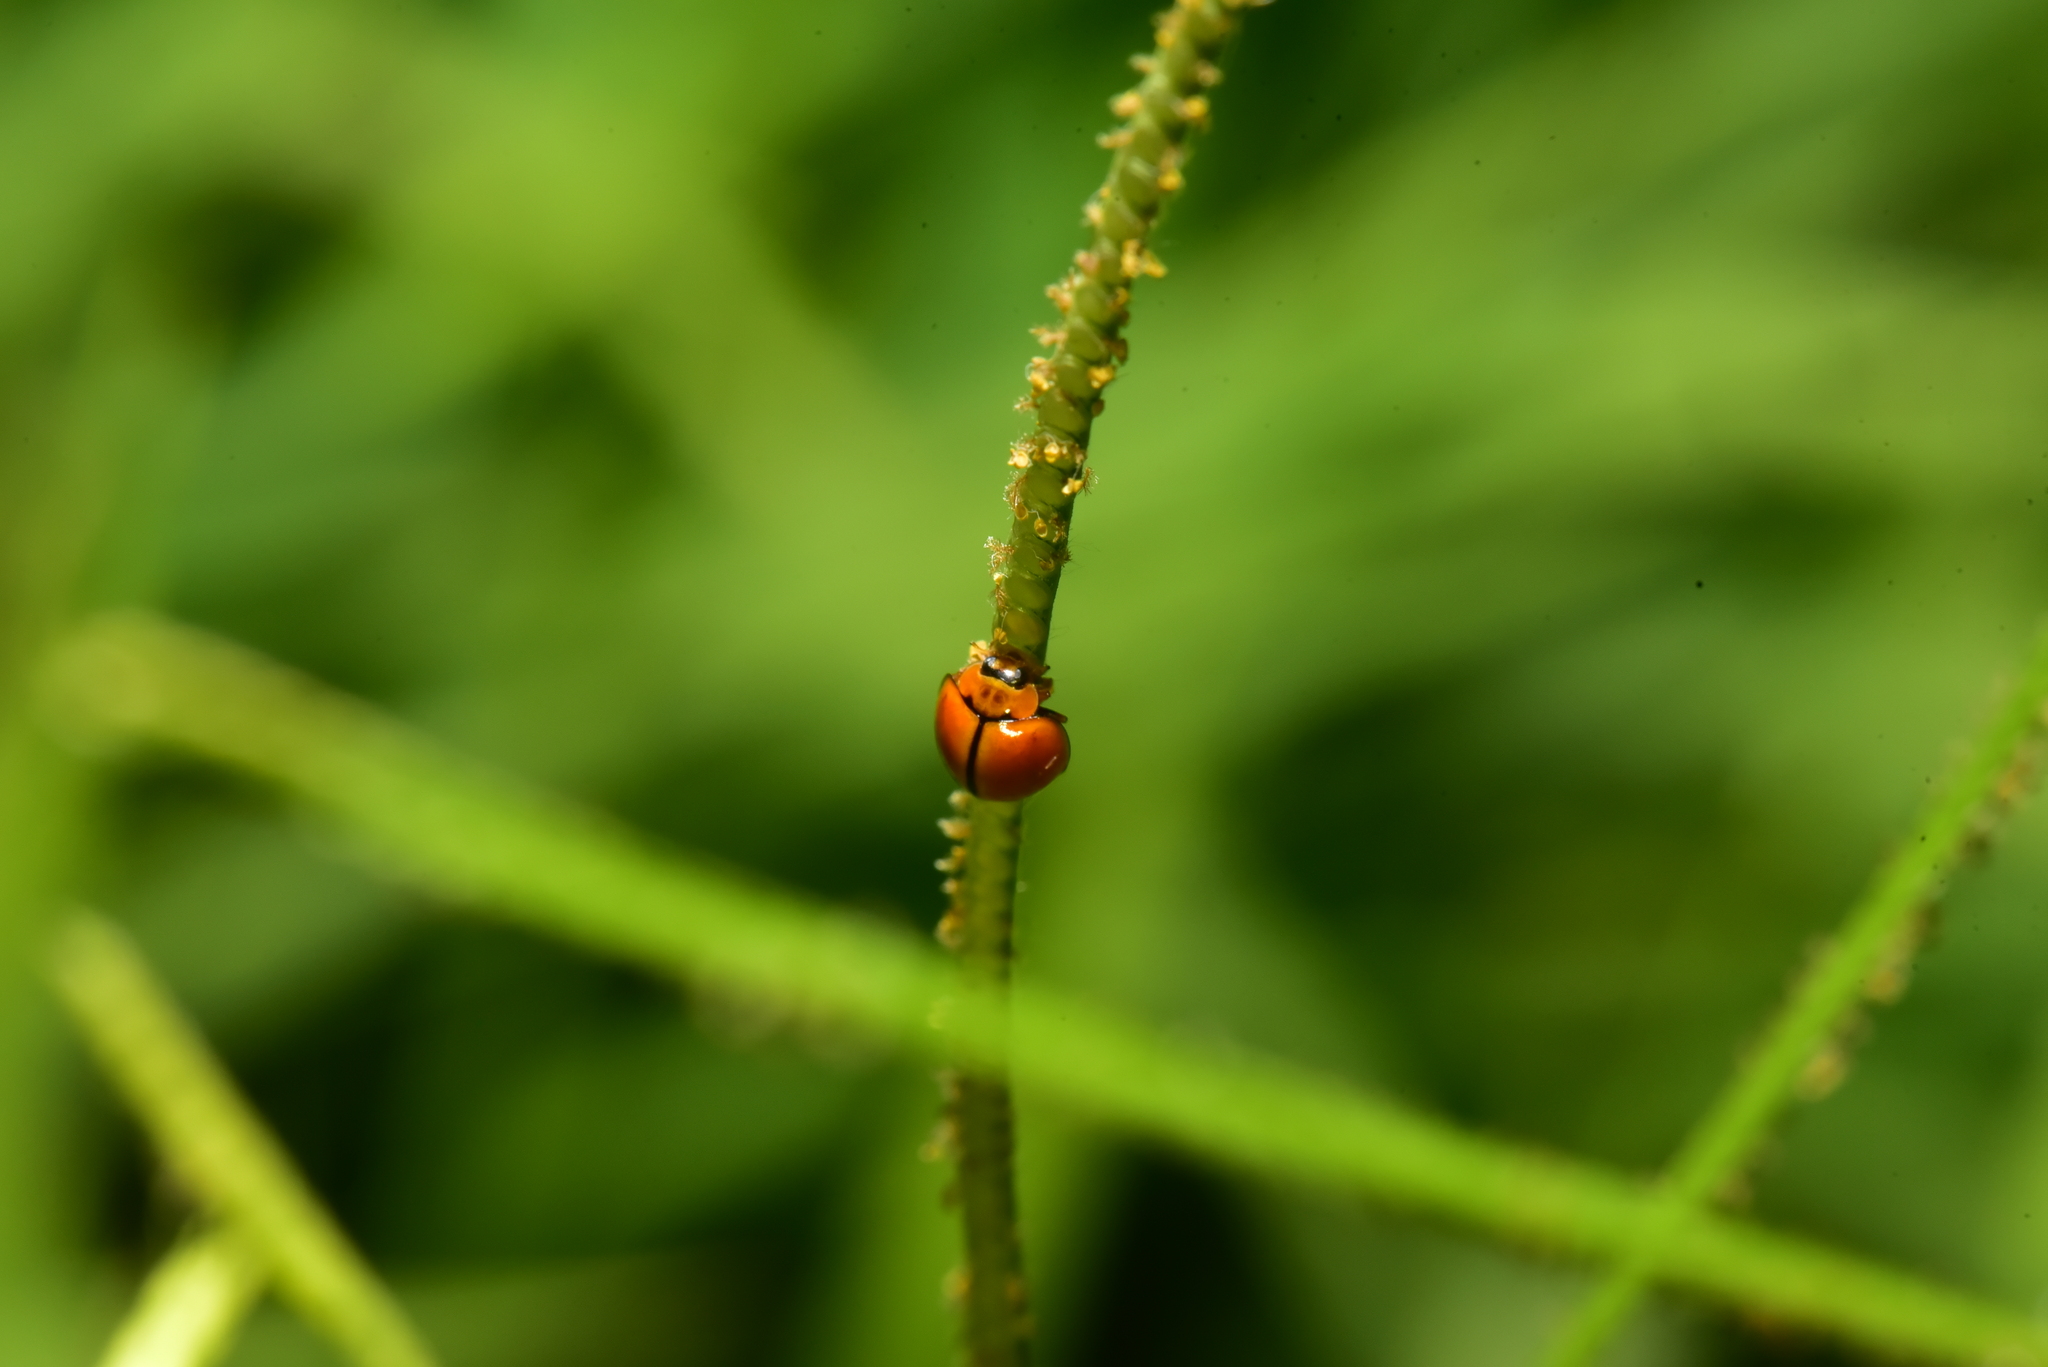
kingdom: Animalia
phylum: Arthropoda
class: Insecta
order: Coleoptera
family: Coccinellidae
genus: Micraspis
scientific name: Micraspis discolor
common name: Lady beetle
